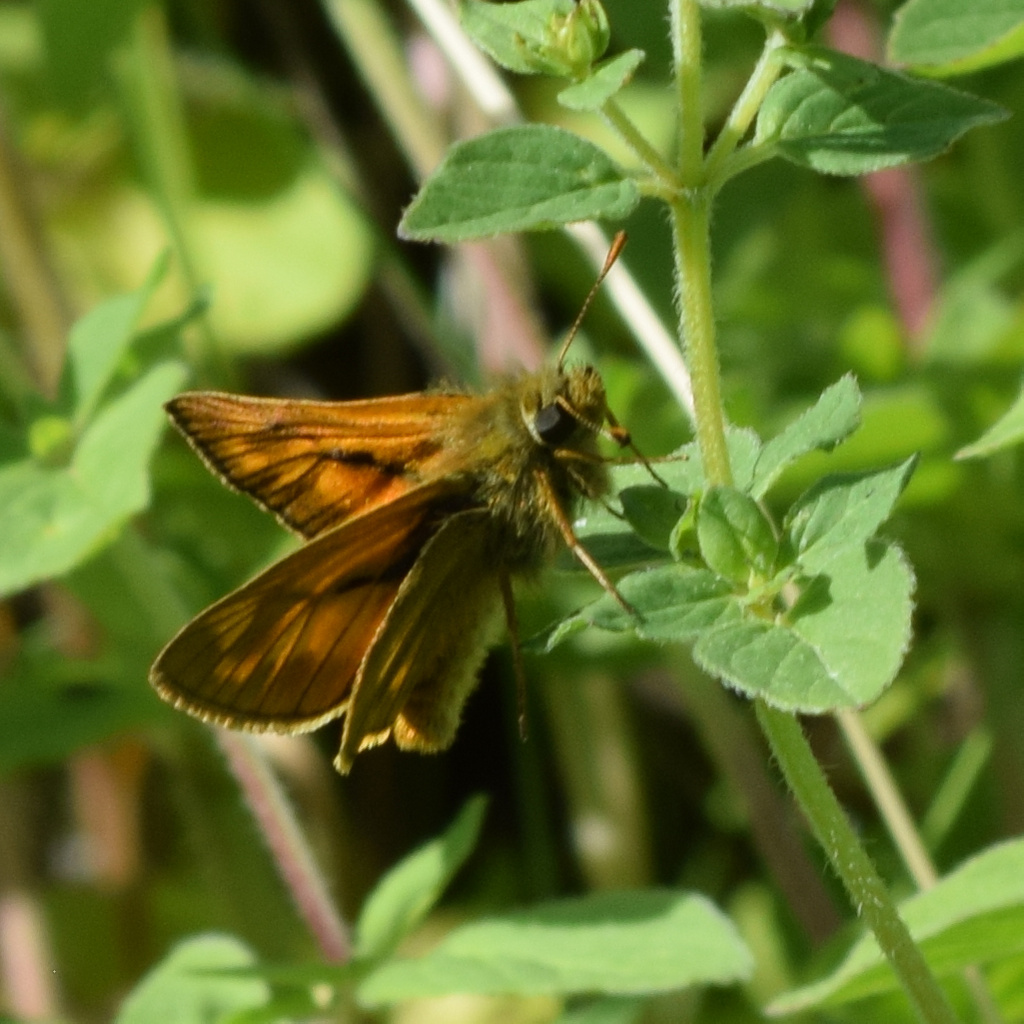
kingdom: Animalia
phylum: Arthropoda
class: Insecta
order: Lepidoptera
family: Hesperiidae
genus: Ochlodes
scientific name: Ochlodes venata
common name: Large skipper
